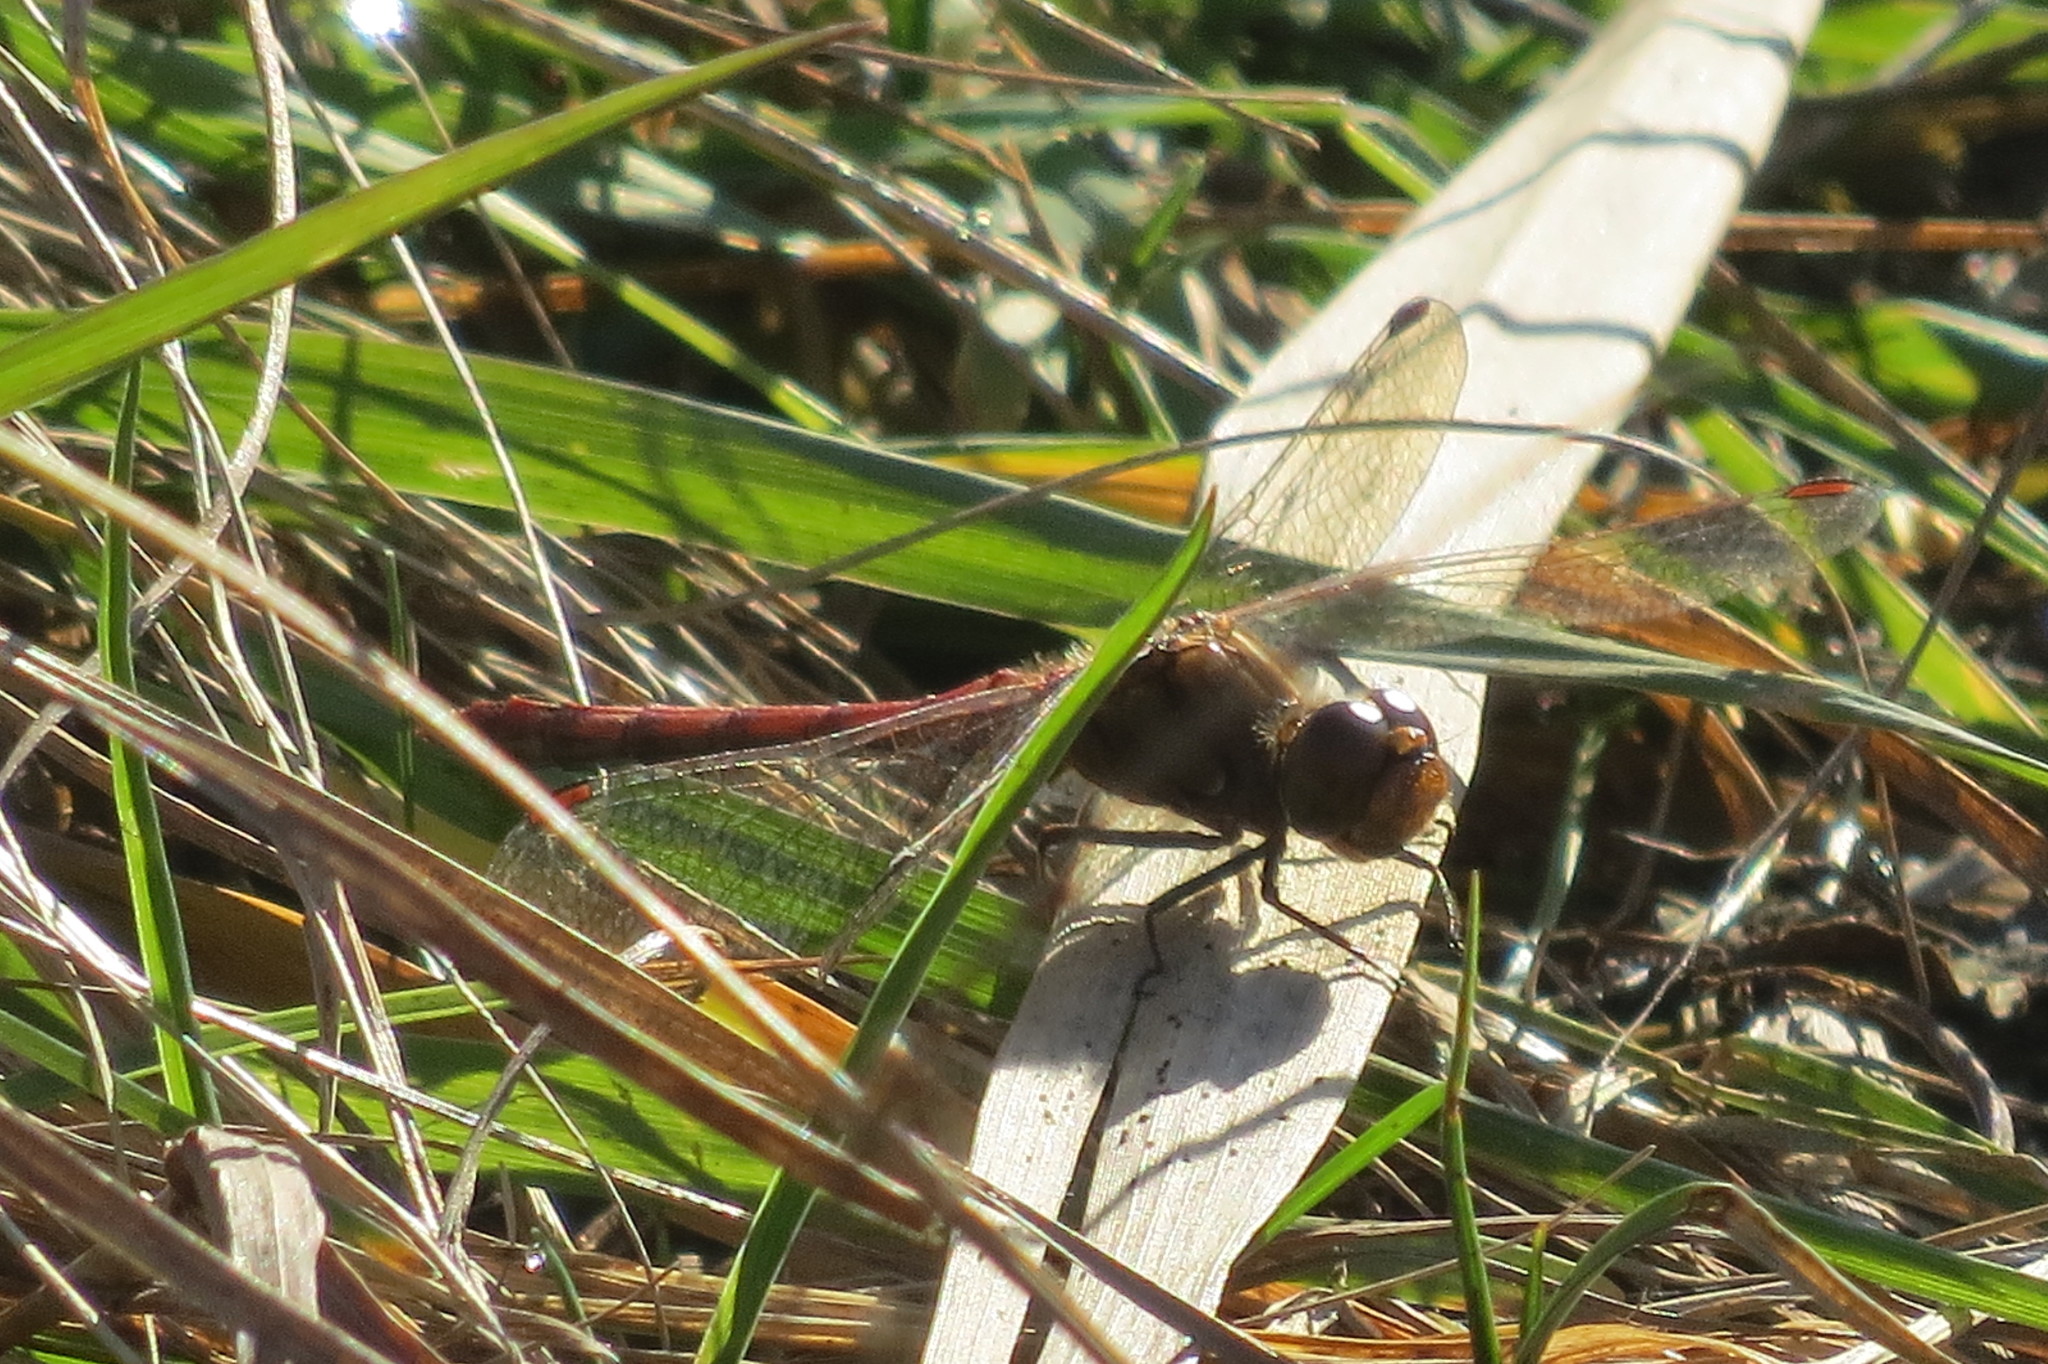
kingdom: Animalia
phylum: Arthropoda
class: Insecta
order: Odonata
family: Libellulidae
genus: Sympetrum
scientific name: Sympetrum striolatum
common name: Common darter
